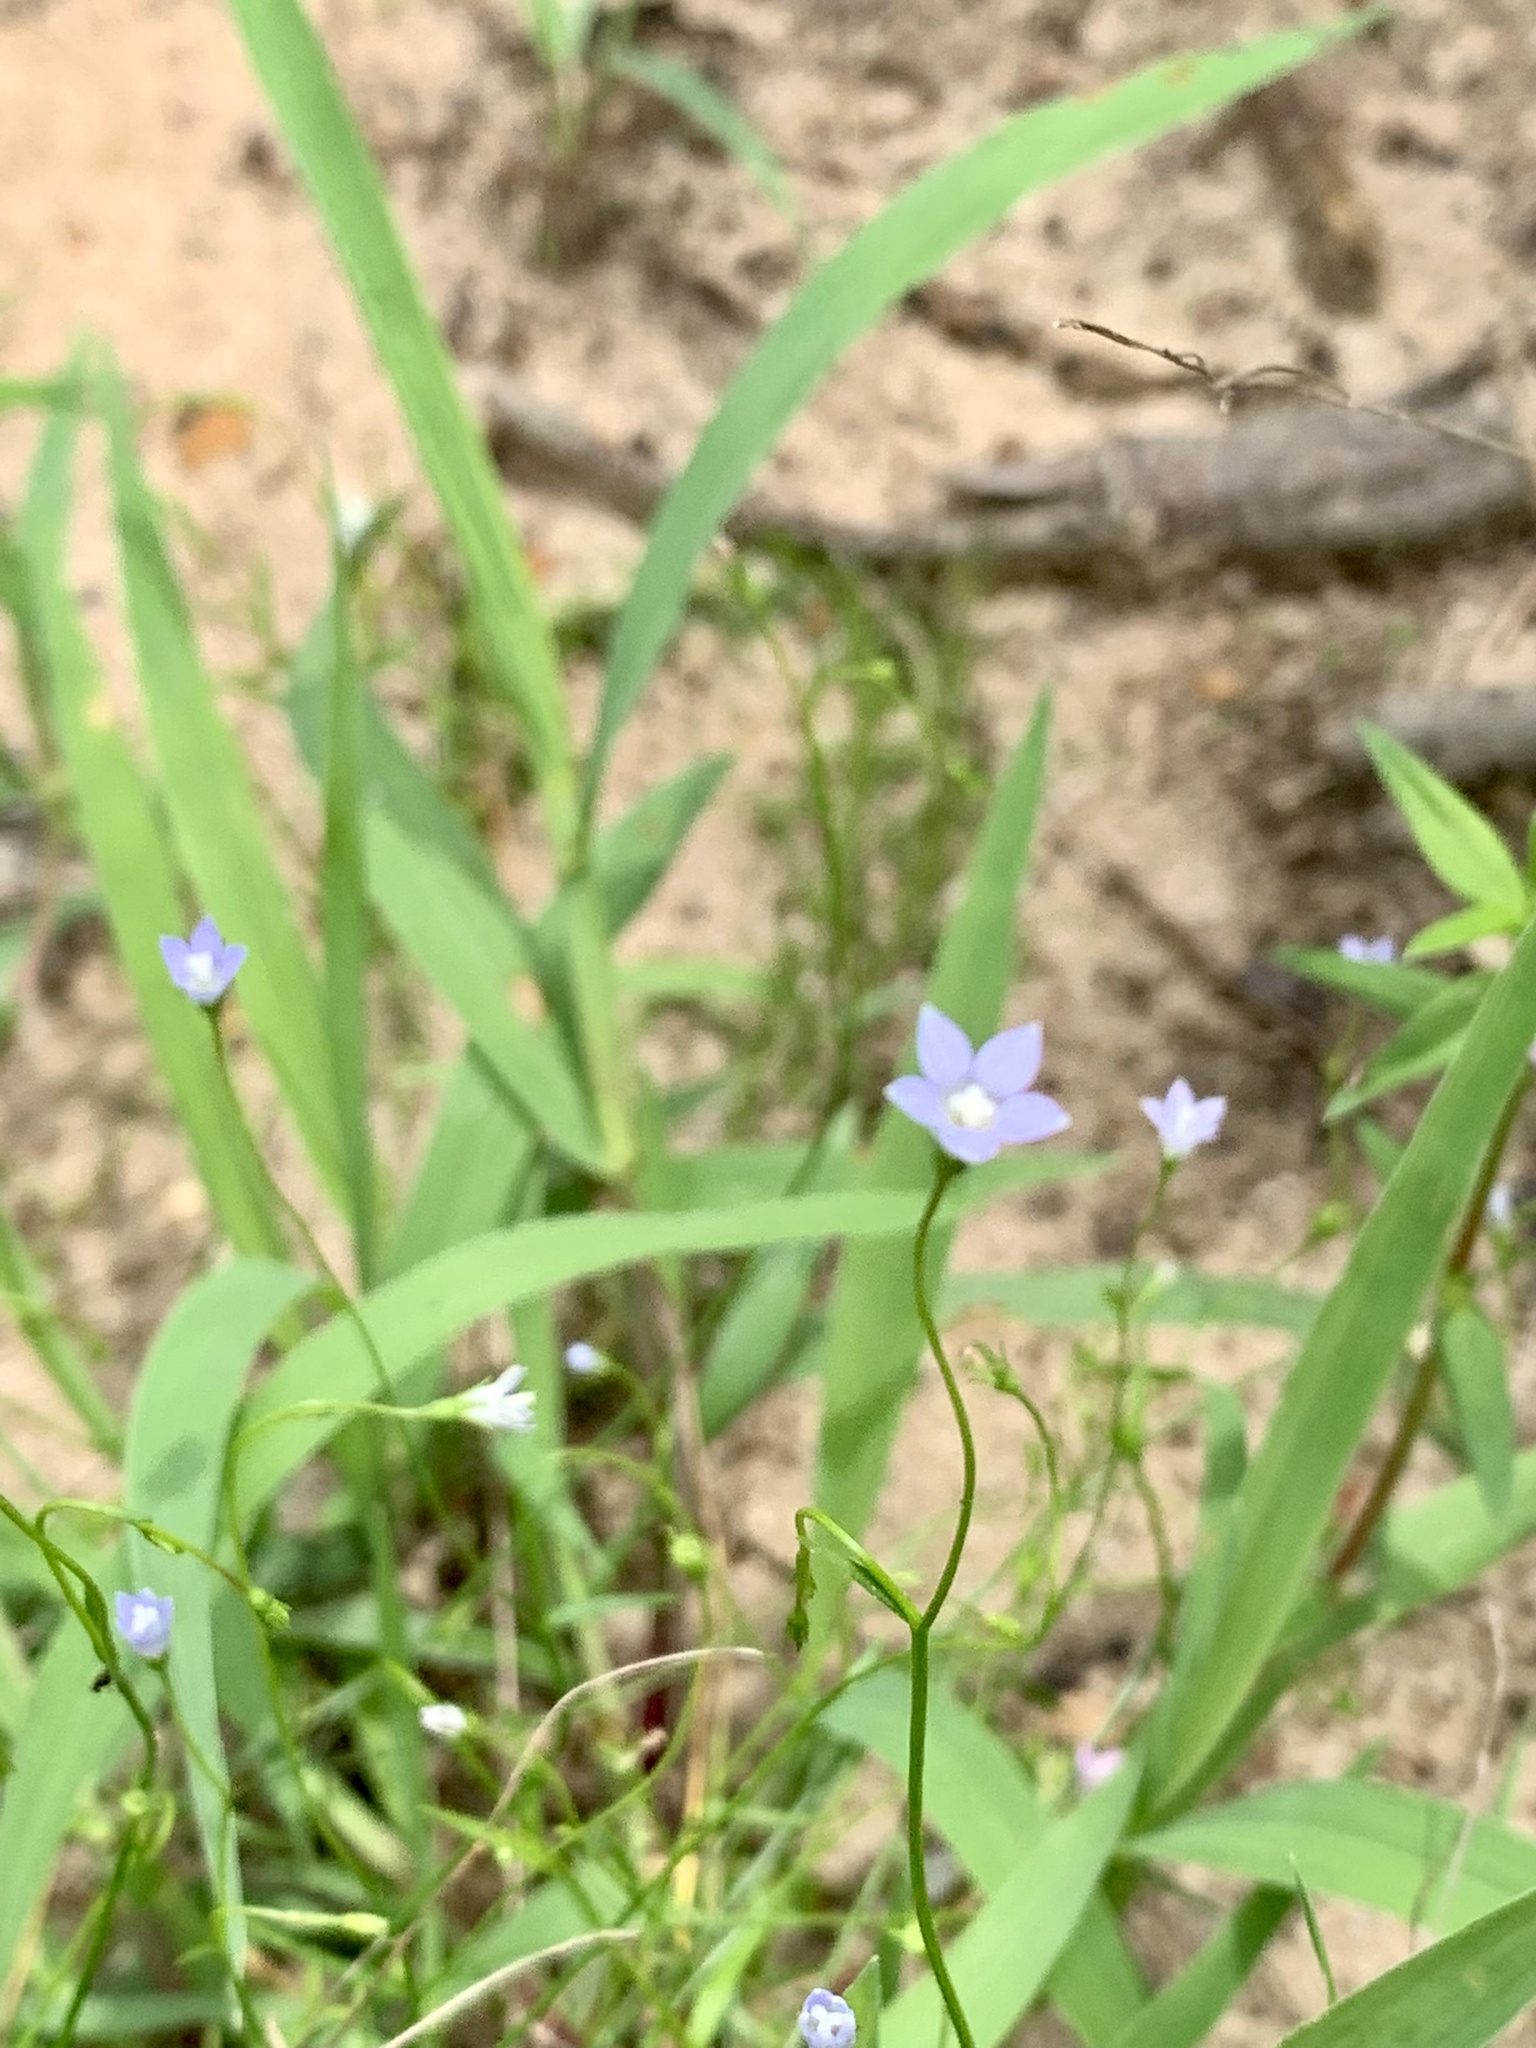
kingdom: Plantae
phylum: Tracheophyta
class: Magnoliopsida
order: Asterales
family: Campanulaceae
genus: Wahlenbergia
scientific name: Wahlenbergia marginata
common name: Southern rockbell
